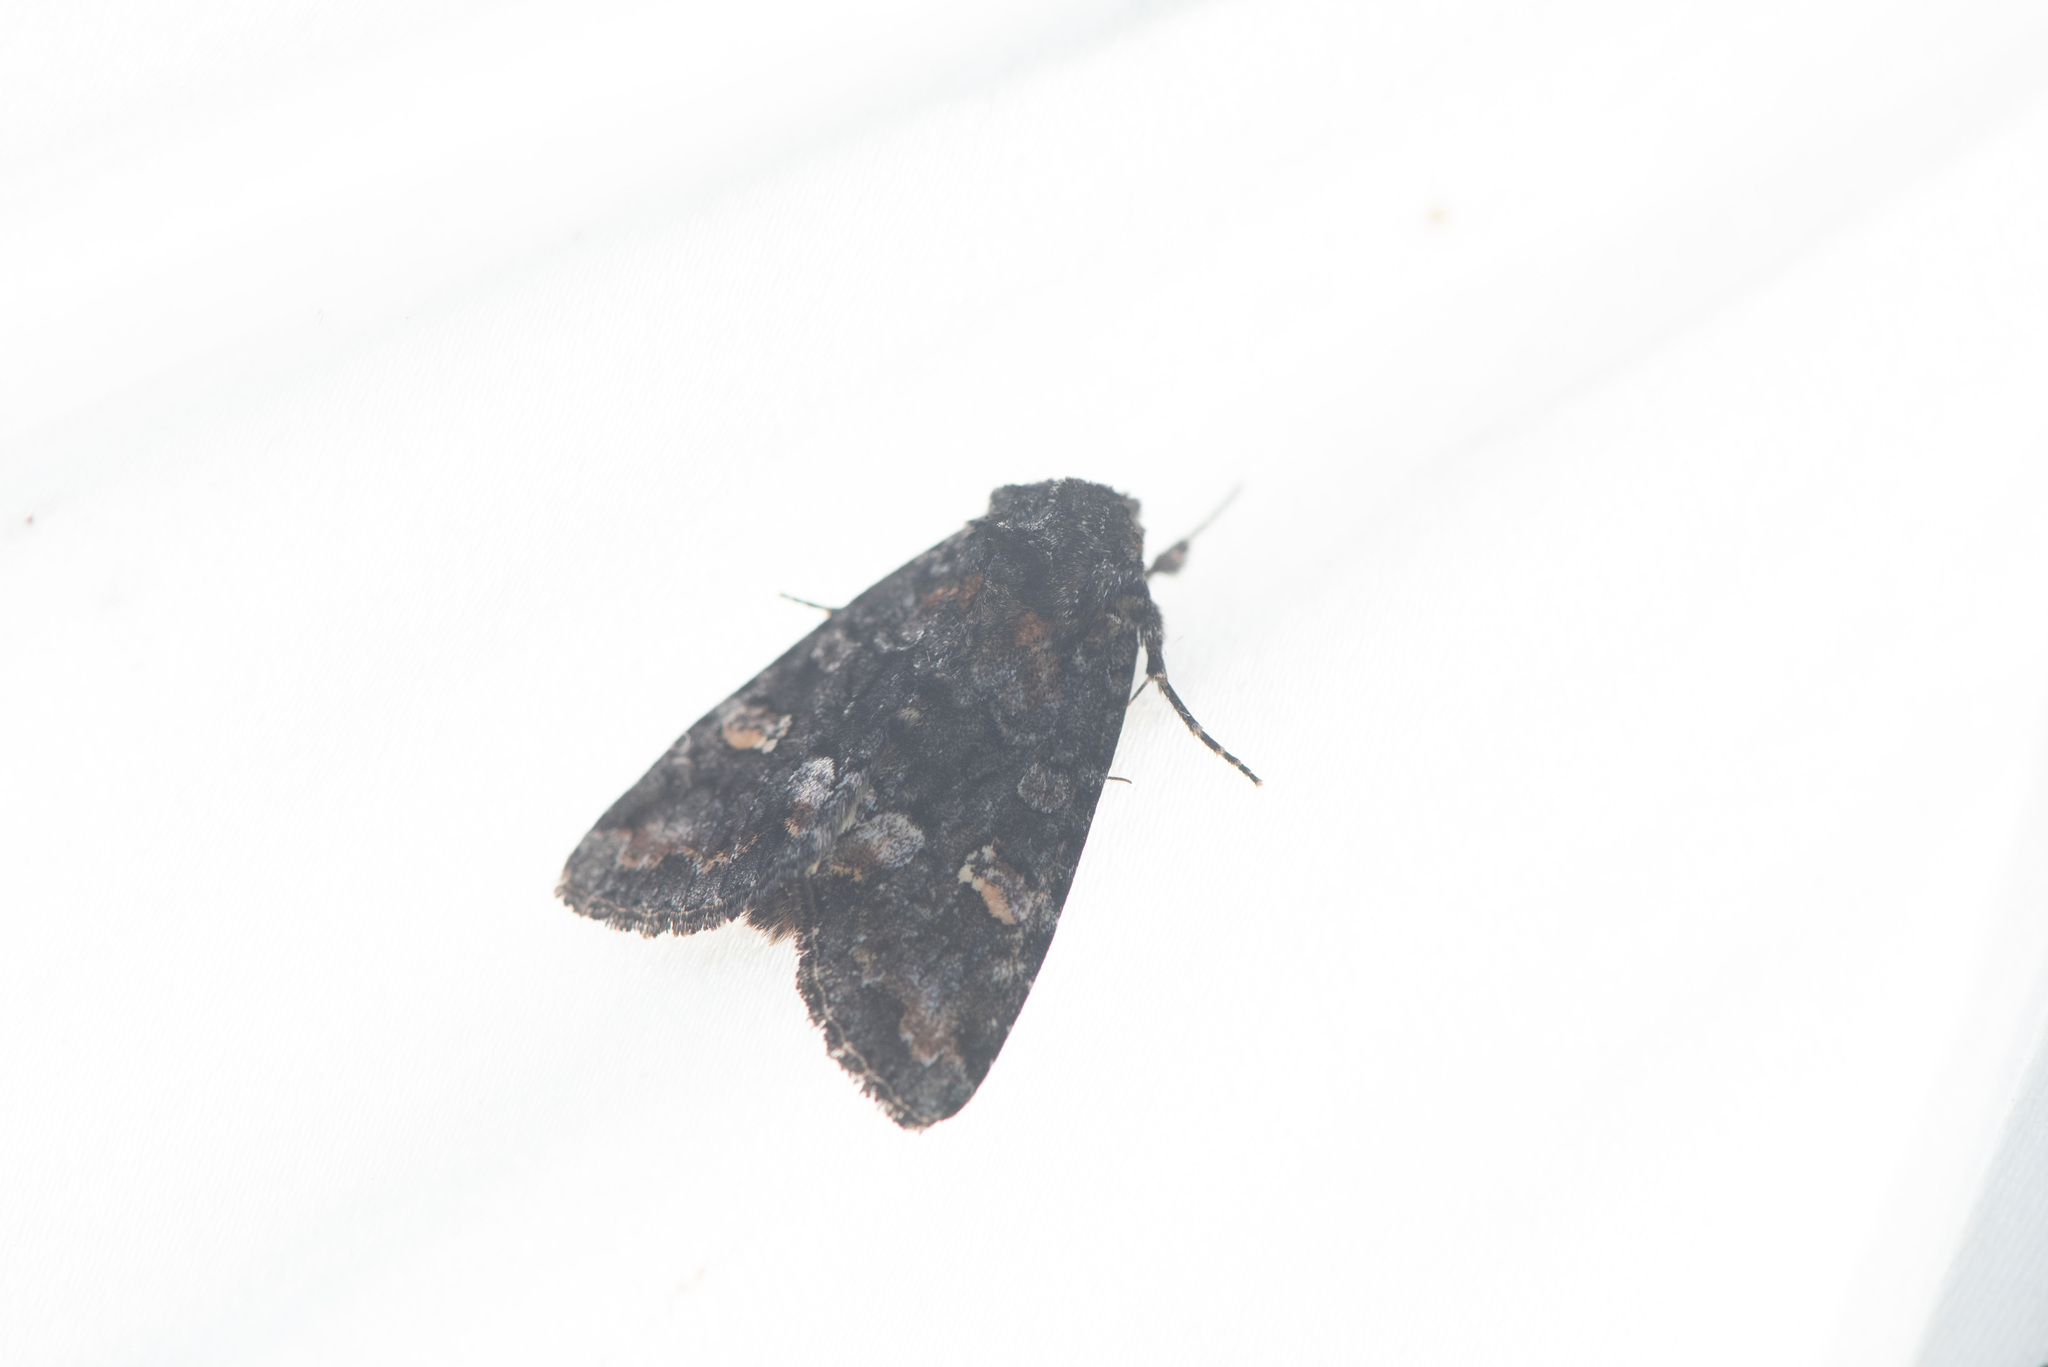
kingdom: Animalia
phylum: Arthropoda
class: Insecta
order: Lepidoptera
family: Noctuidae
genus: Spiramater
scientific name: Spiramater lutra
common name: Otter spiramater moth
